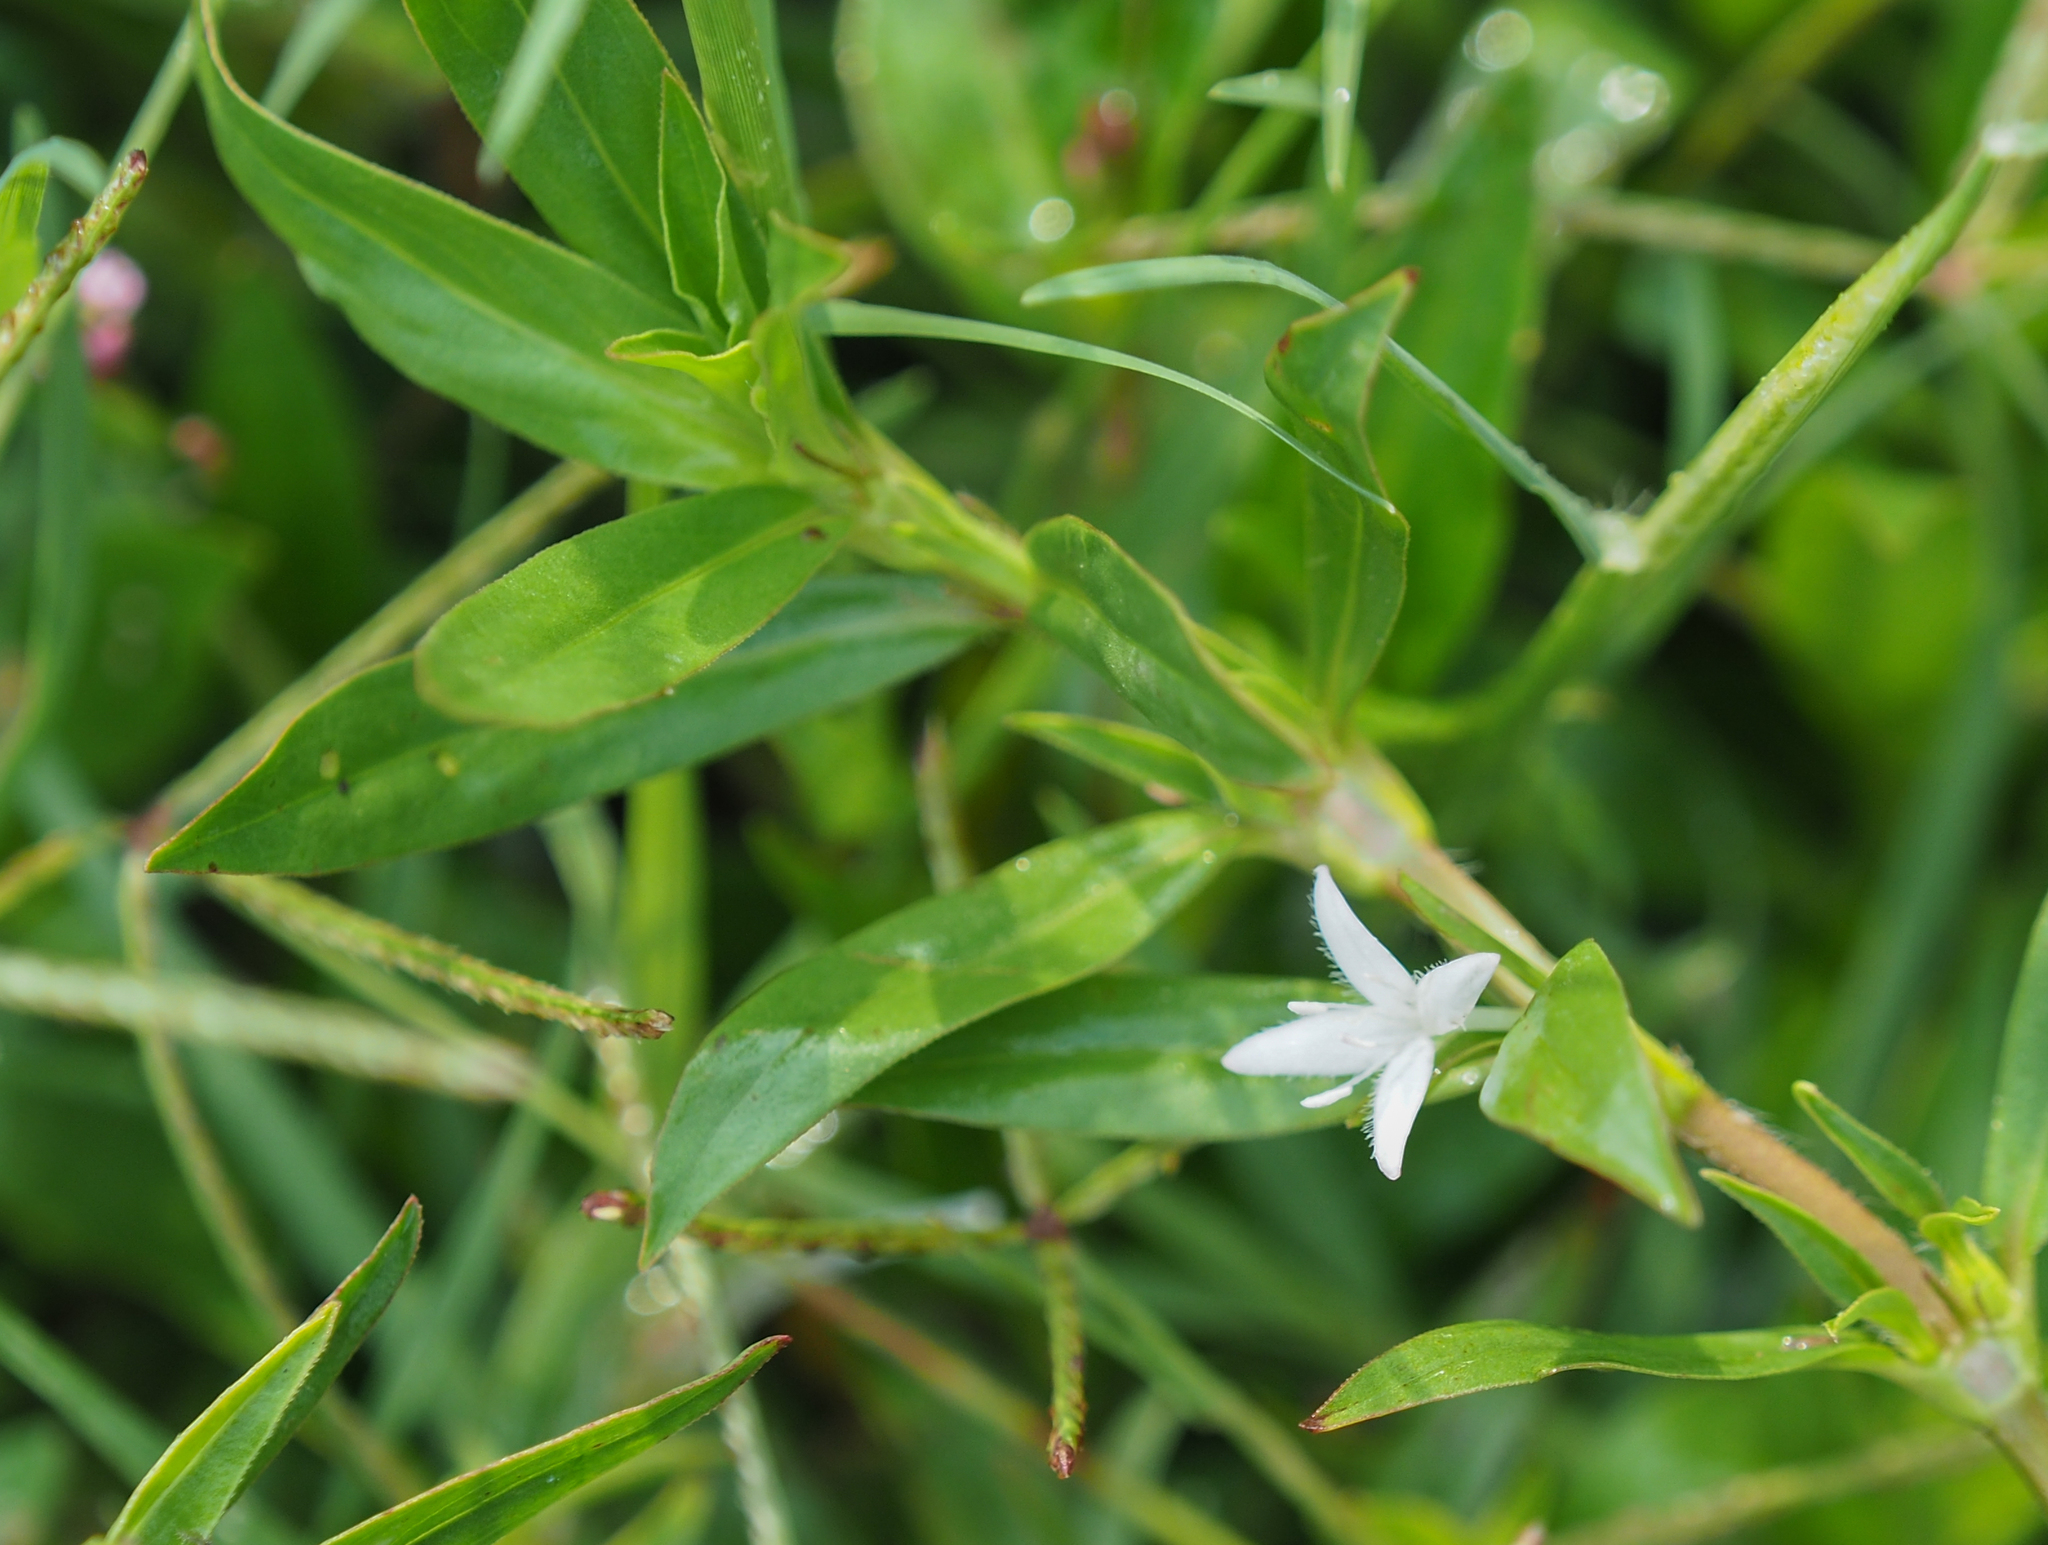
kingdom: Plantae
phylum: Tracheophyta
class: Magnoliopsida
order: Gentianales
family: Rubiaceae
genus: Diodia
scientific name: Diodia virginiana
